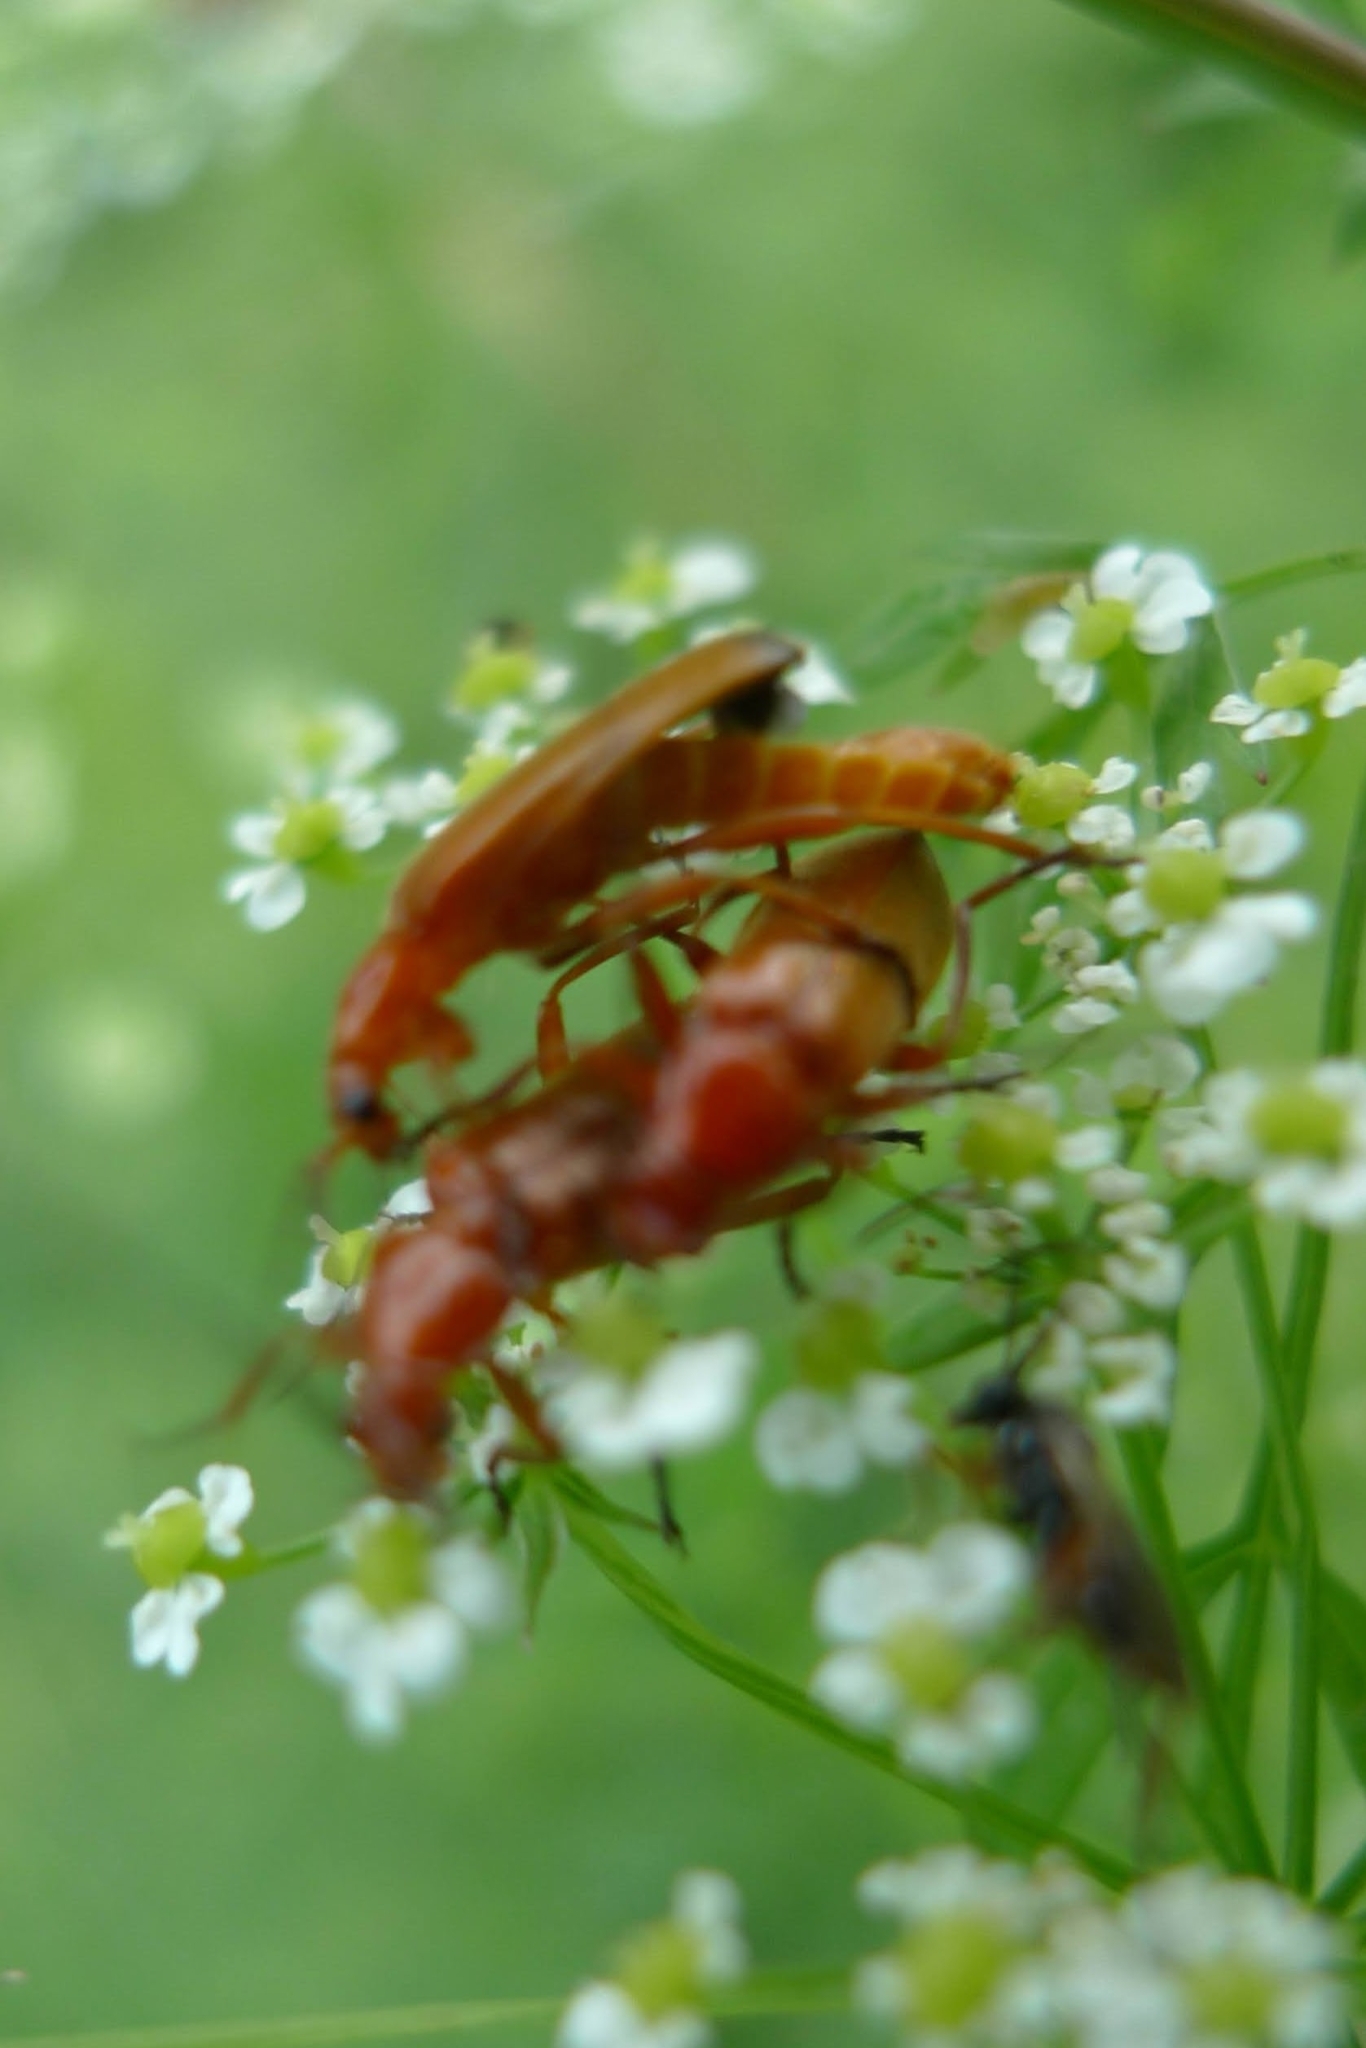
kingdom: Animalia
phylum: Arthropoda
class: Insecta
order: Coleoptera
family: Cantharidae
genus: Rhagonycha
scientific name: Rhagonycha fulva
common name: Common red soldier beetle
